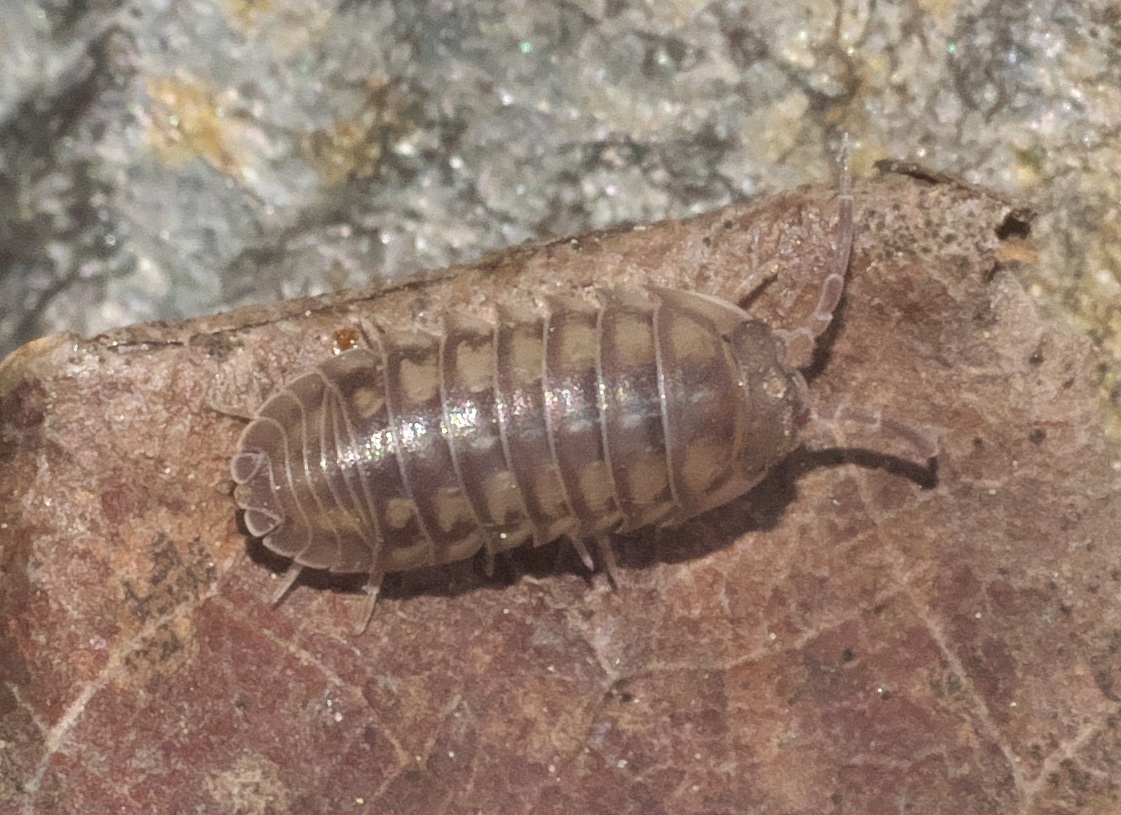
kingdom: Animalia
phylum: Arthropoda
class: Malacostraca
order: Isopoda
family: Armadillidiidae
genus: Armadillidium
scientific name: Armadillidium nasatum
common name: Isopod
